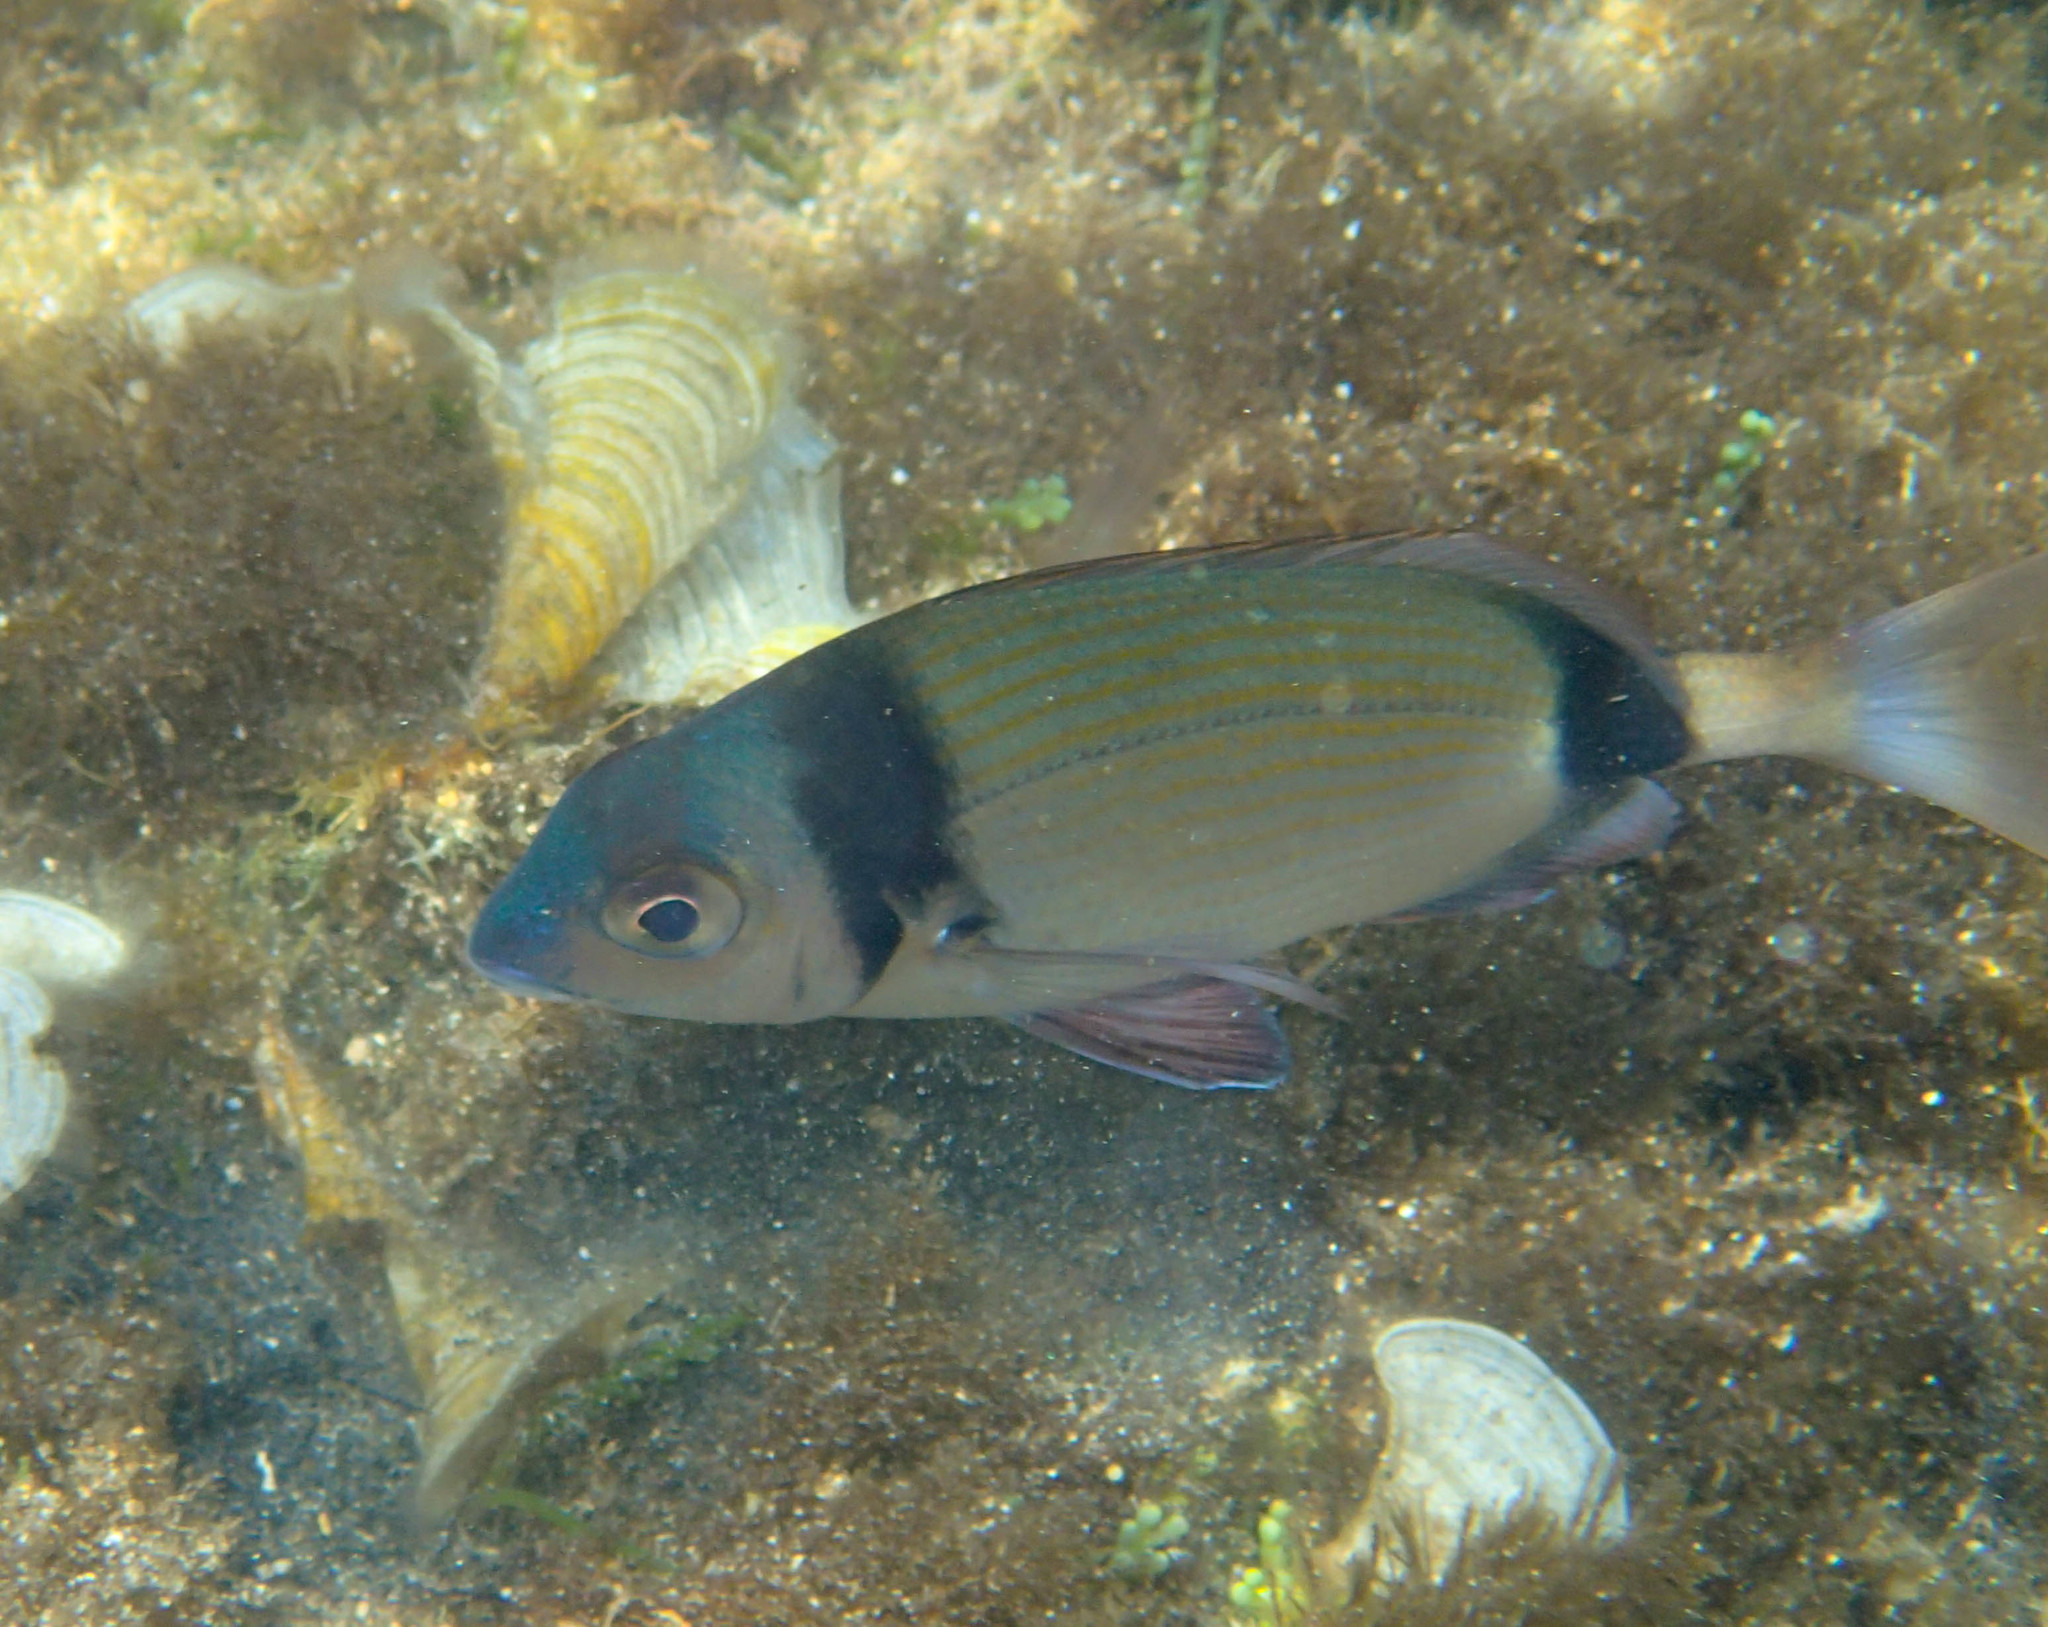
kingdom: Animalia
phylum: Chordata
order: Perciformes
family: Sparidae
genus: Diplodus
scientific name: Diplodus vulgaris
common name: Common two-banded seabream
